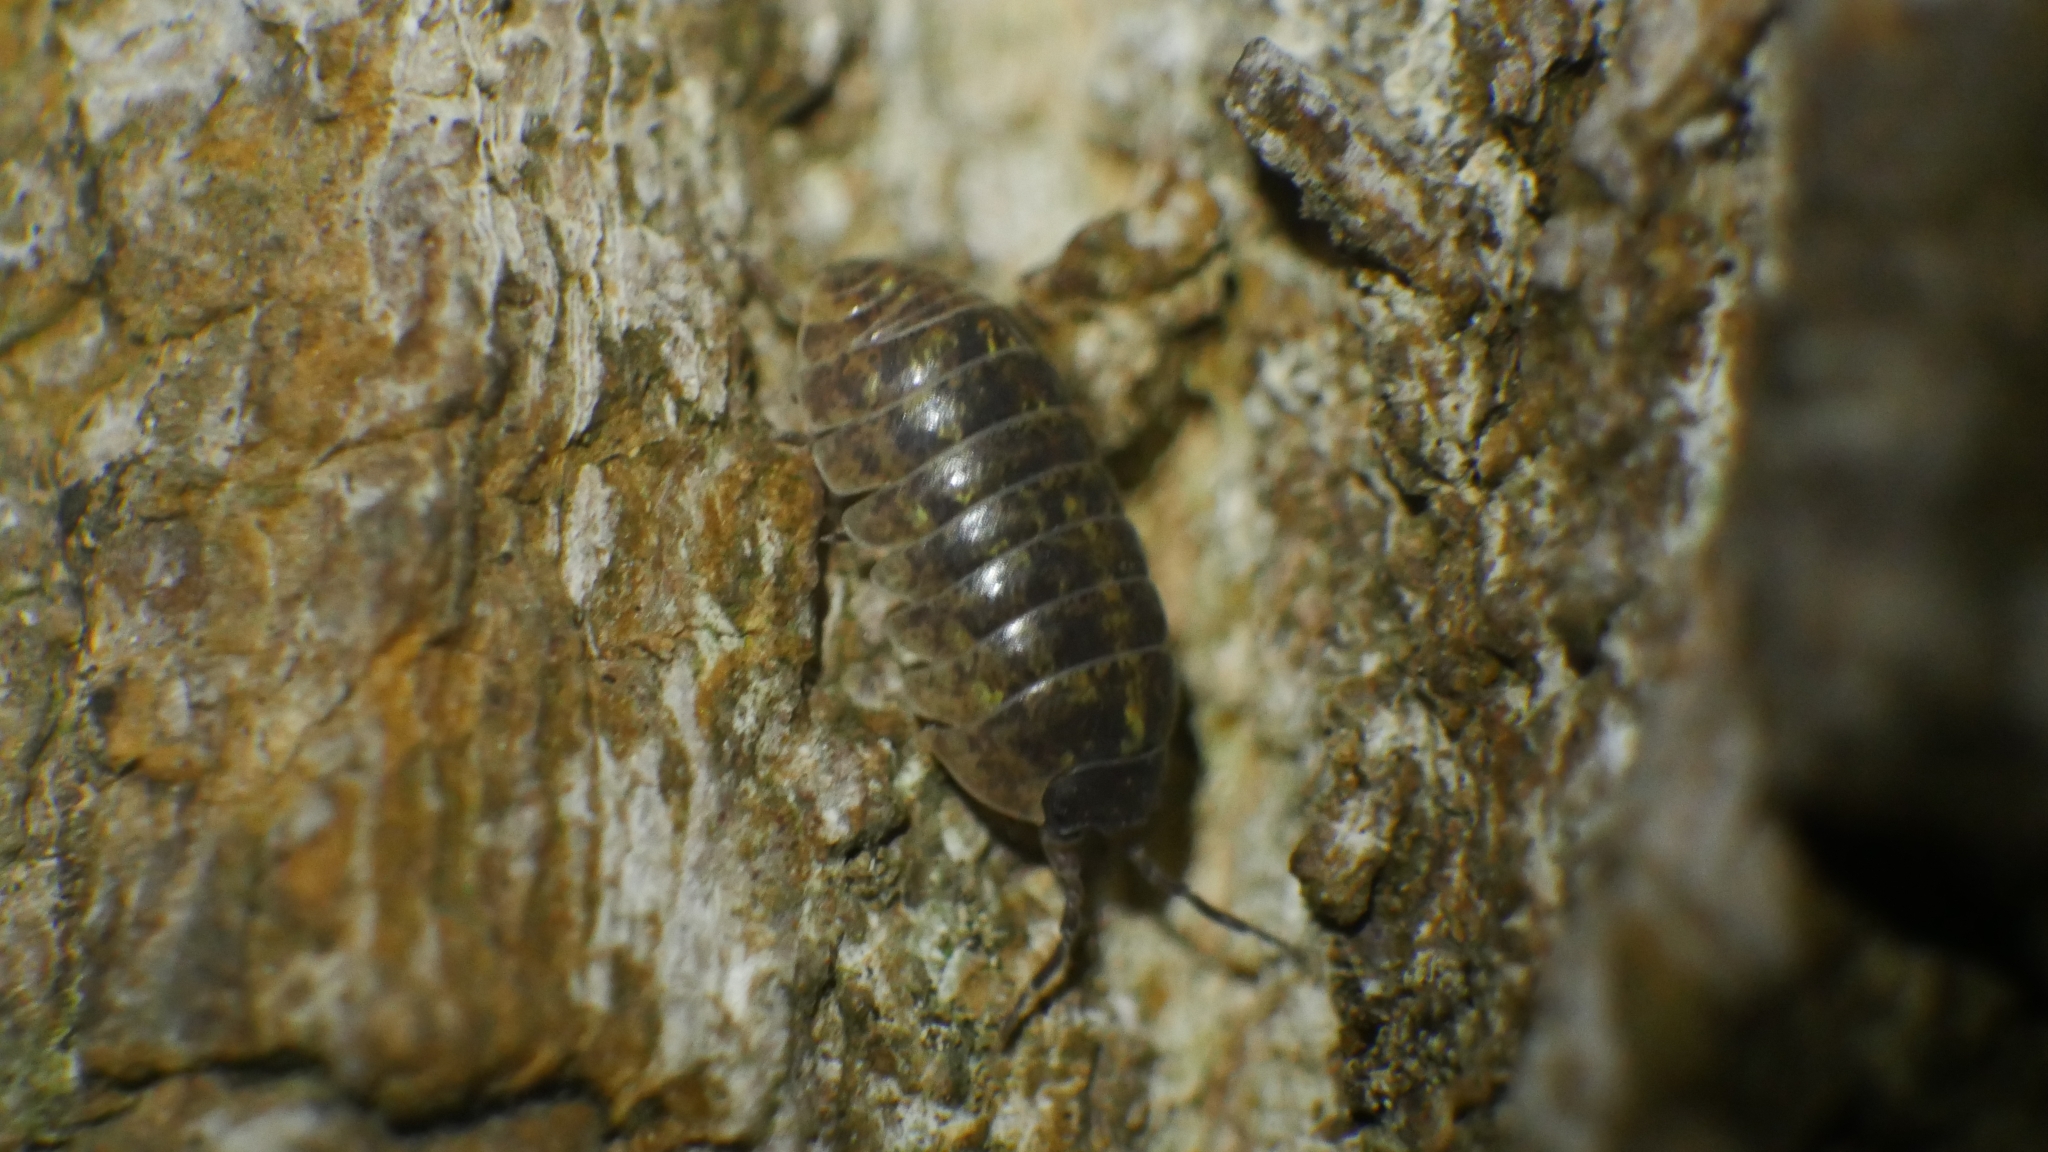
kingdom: Animalia
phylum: Arthropoda
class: Malacostraca
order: Isopoda
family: Armadillidiidae
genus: Armadillidium
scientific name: Armadillidium vulgare
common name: Common pill woodlouse
